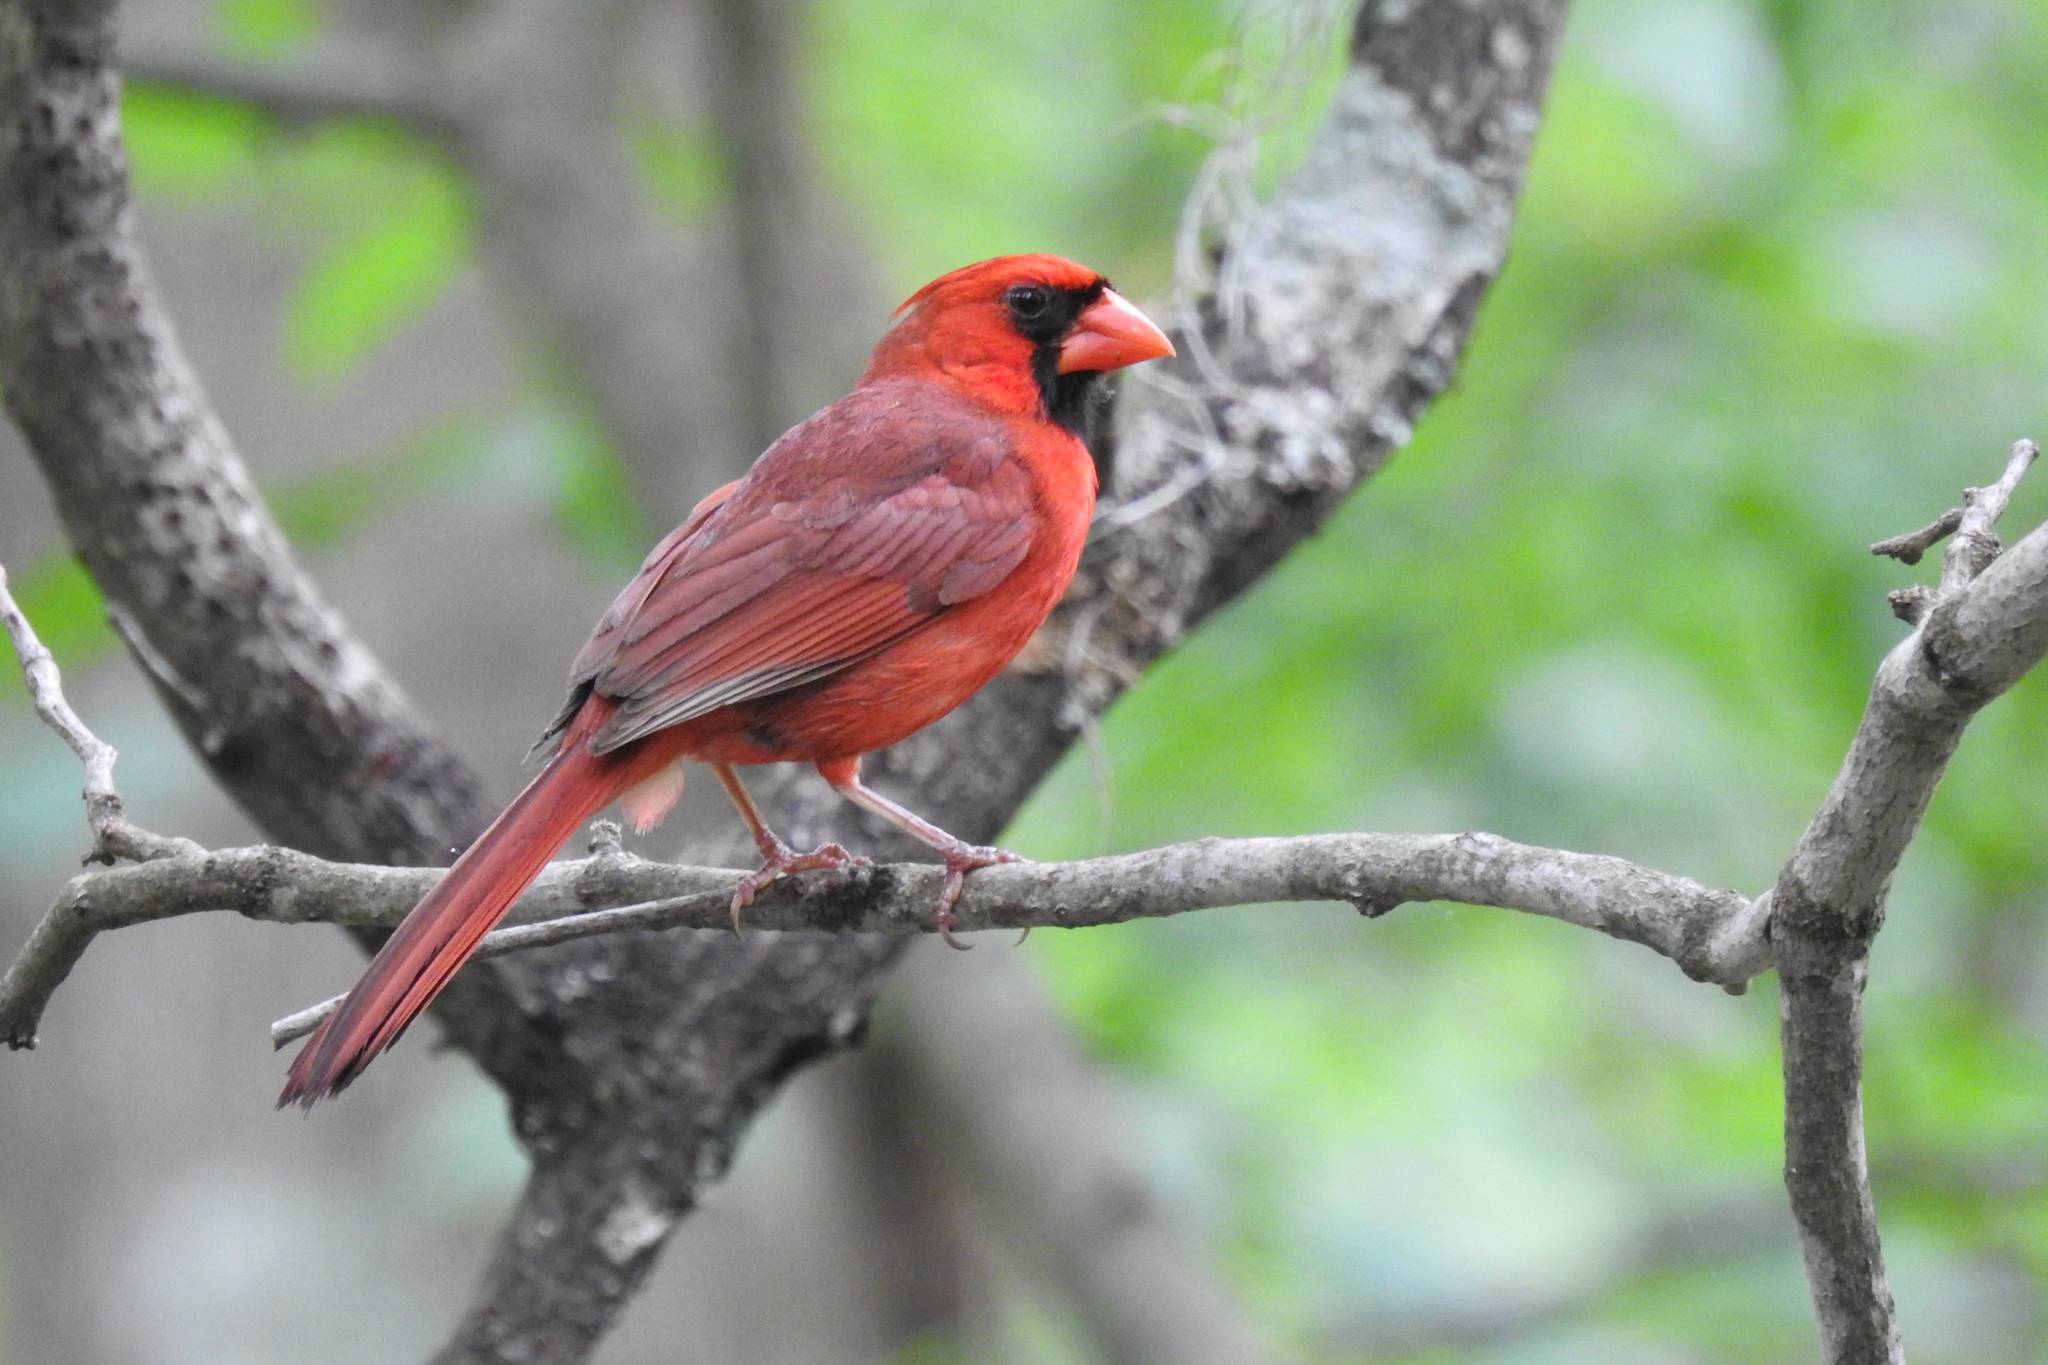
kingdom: Animalia
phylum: Chordata
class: Aves
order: Passeriformes
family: Cardinalidae
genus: Cardinalis
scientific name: Cardinalis cardinalis
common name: Northern cardinal
